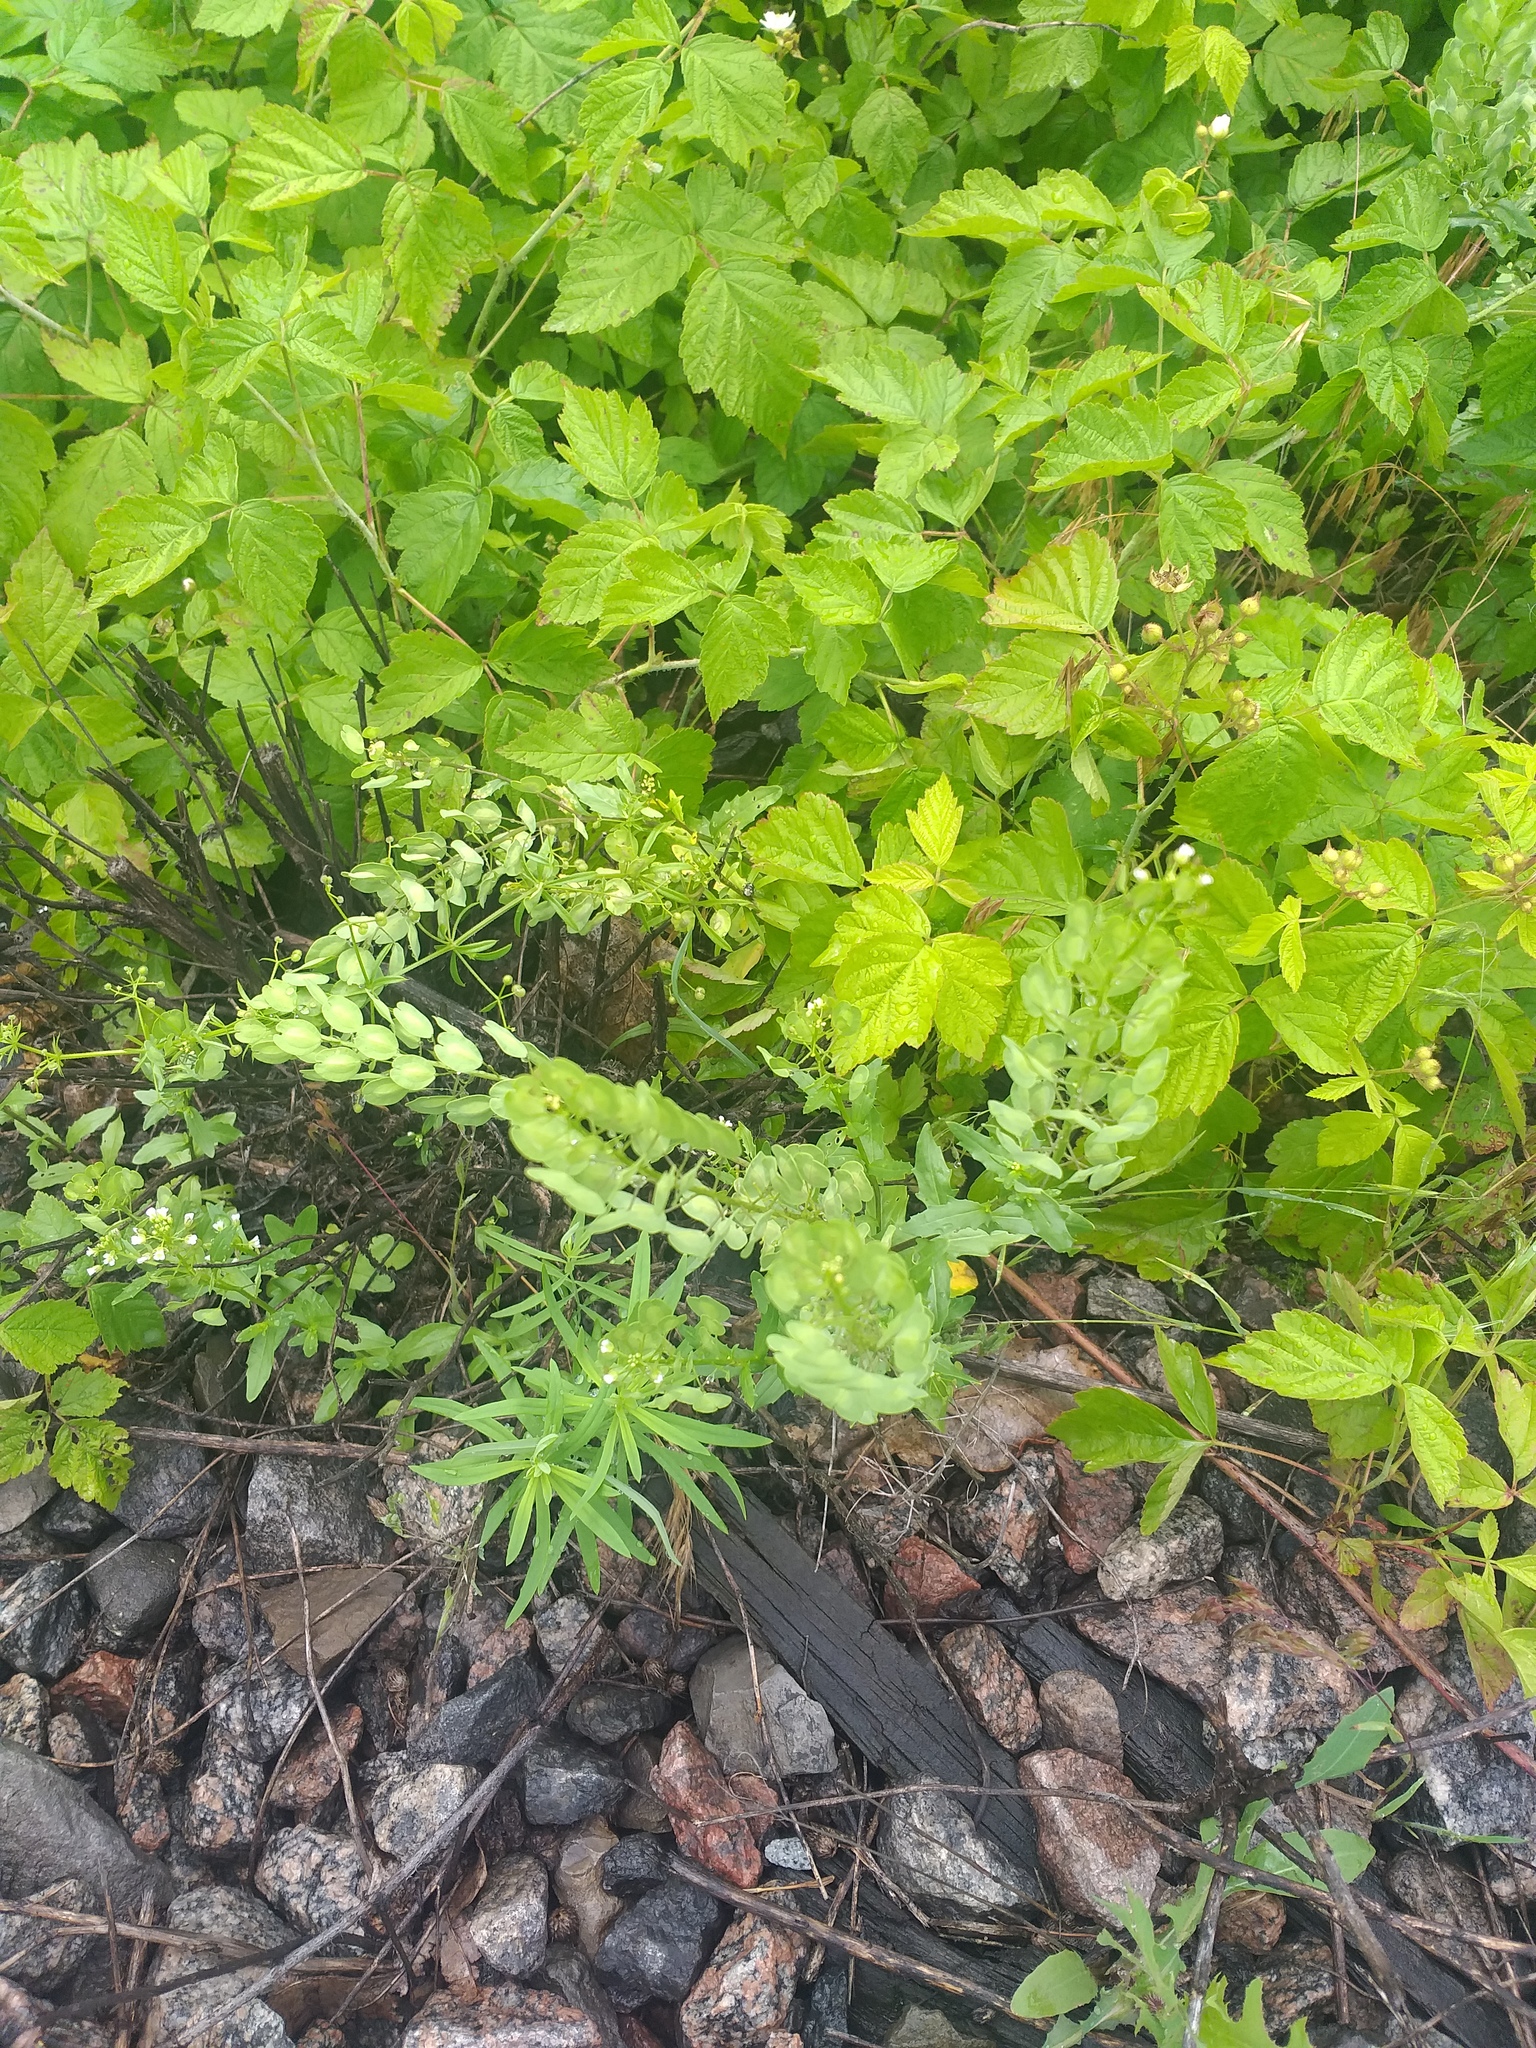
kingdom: Plantae
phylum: Tracheophyta
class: Magnoliopsida
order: Brassicales
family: Brassicaceae
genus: Thlaspi
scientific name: Thlaspi arvense
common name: Field pennycress
